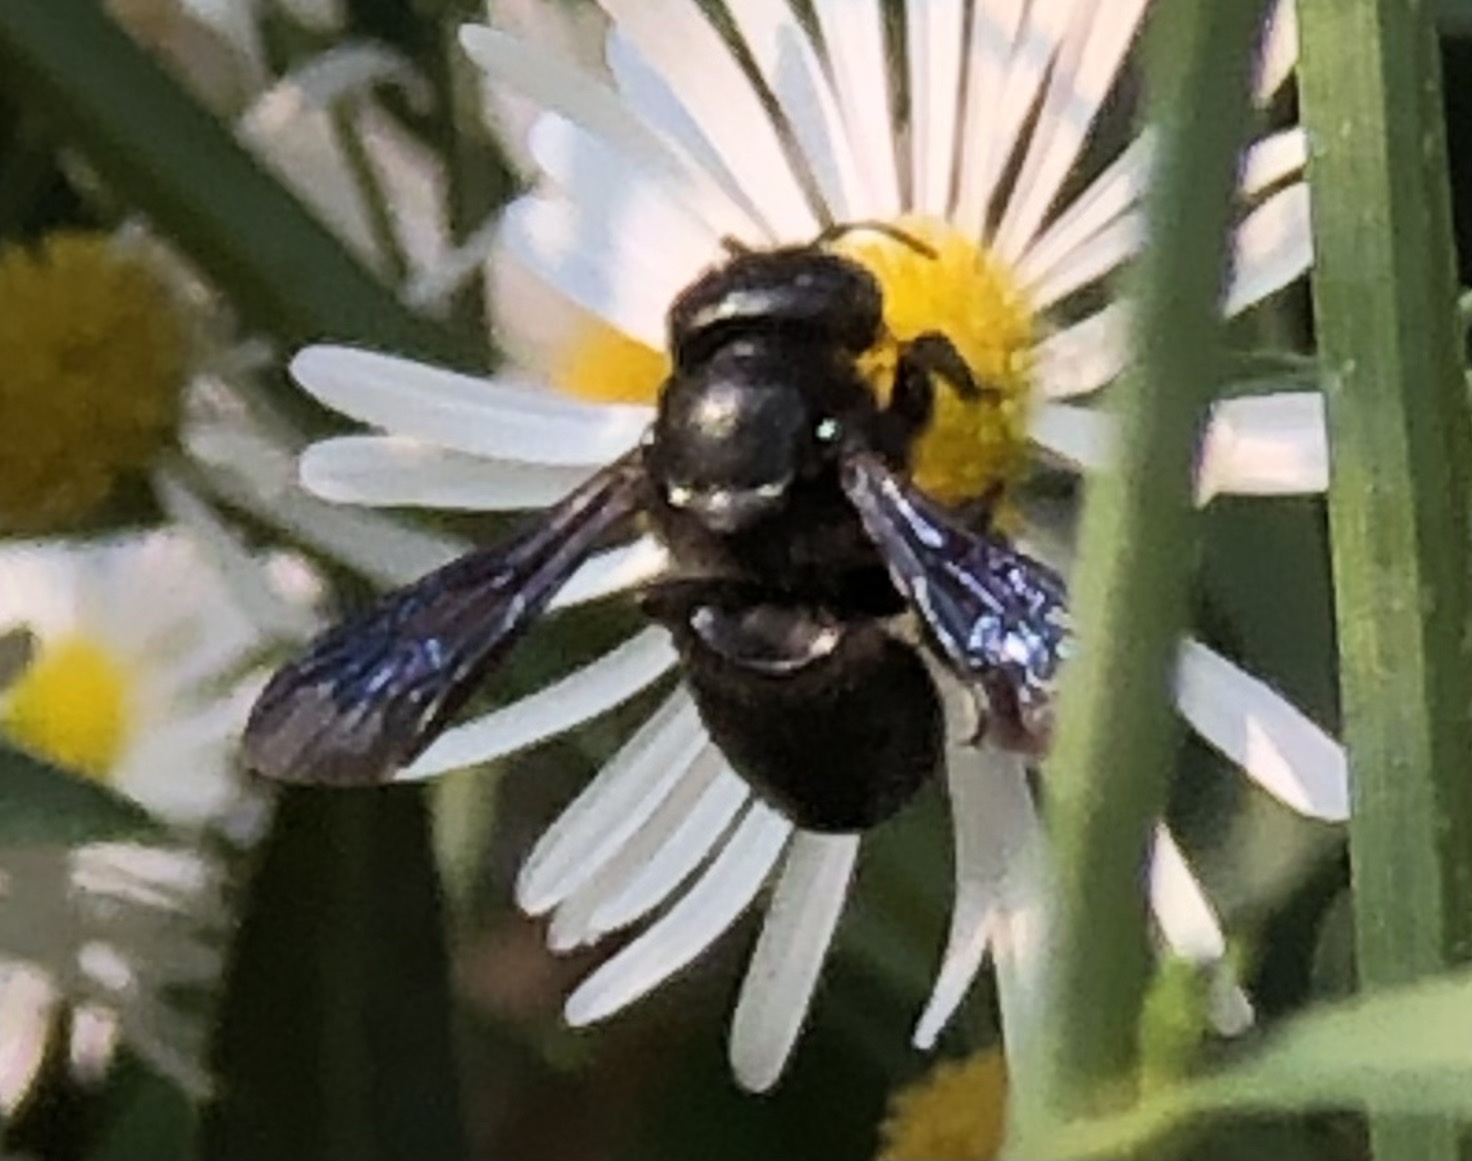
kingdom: Animalia
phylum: Arthropoda
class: Insecta
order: Hymenoptera
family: Megachilidae
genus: Megachile
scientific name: Megachile xylocopoides
